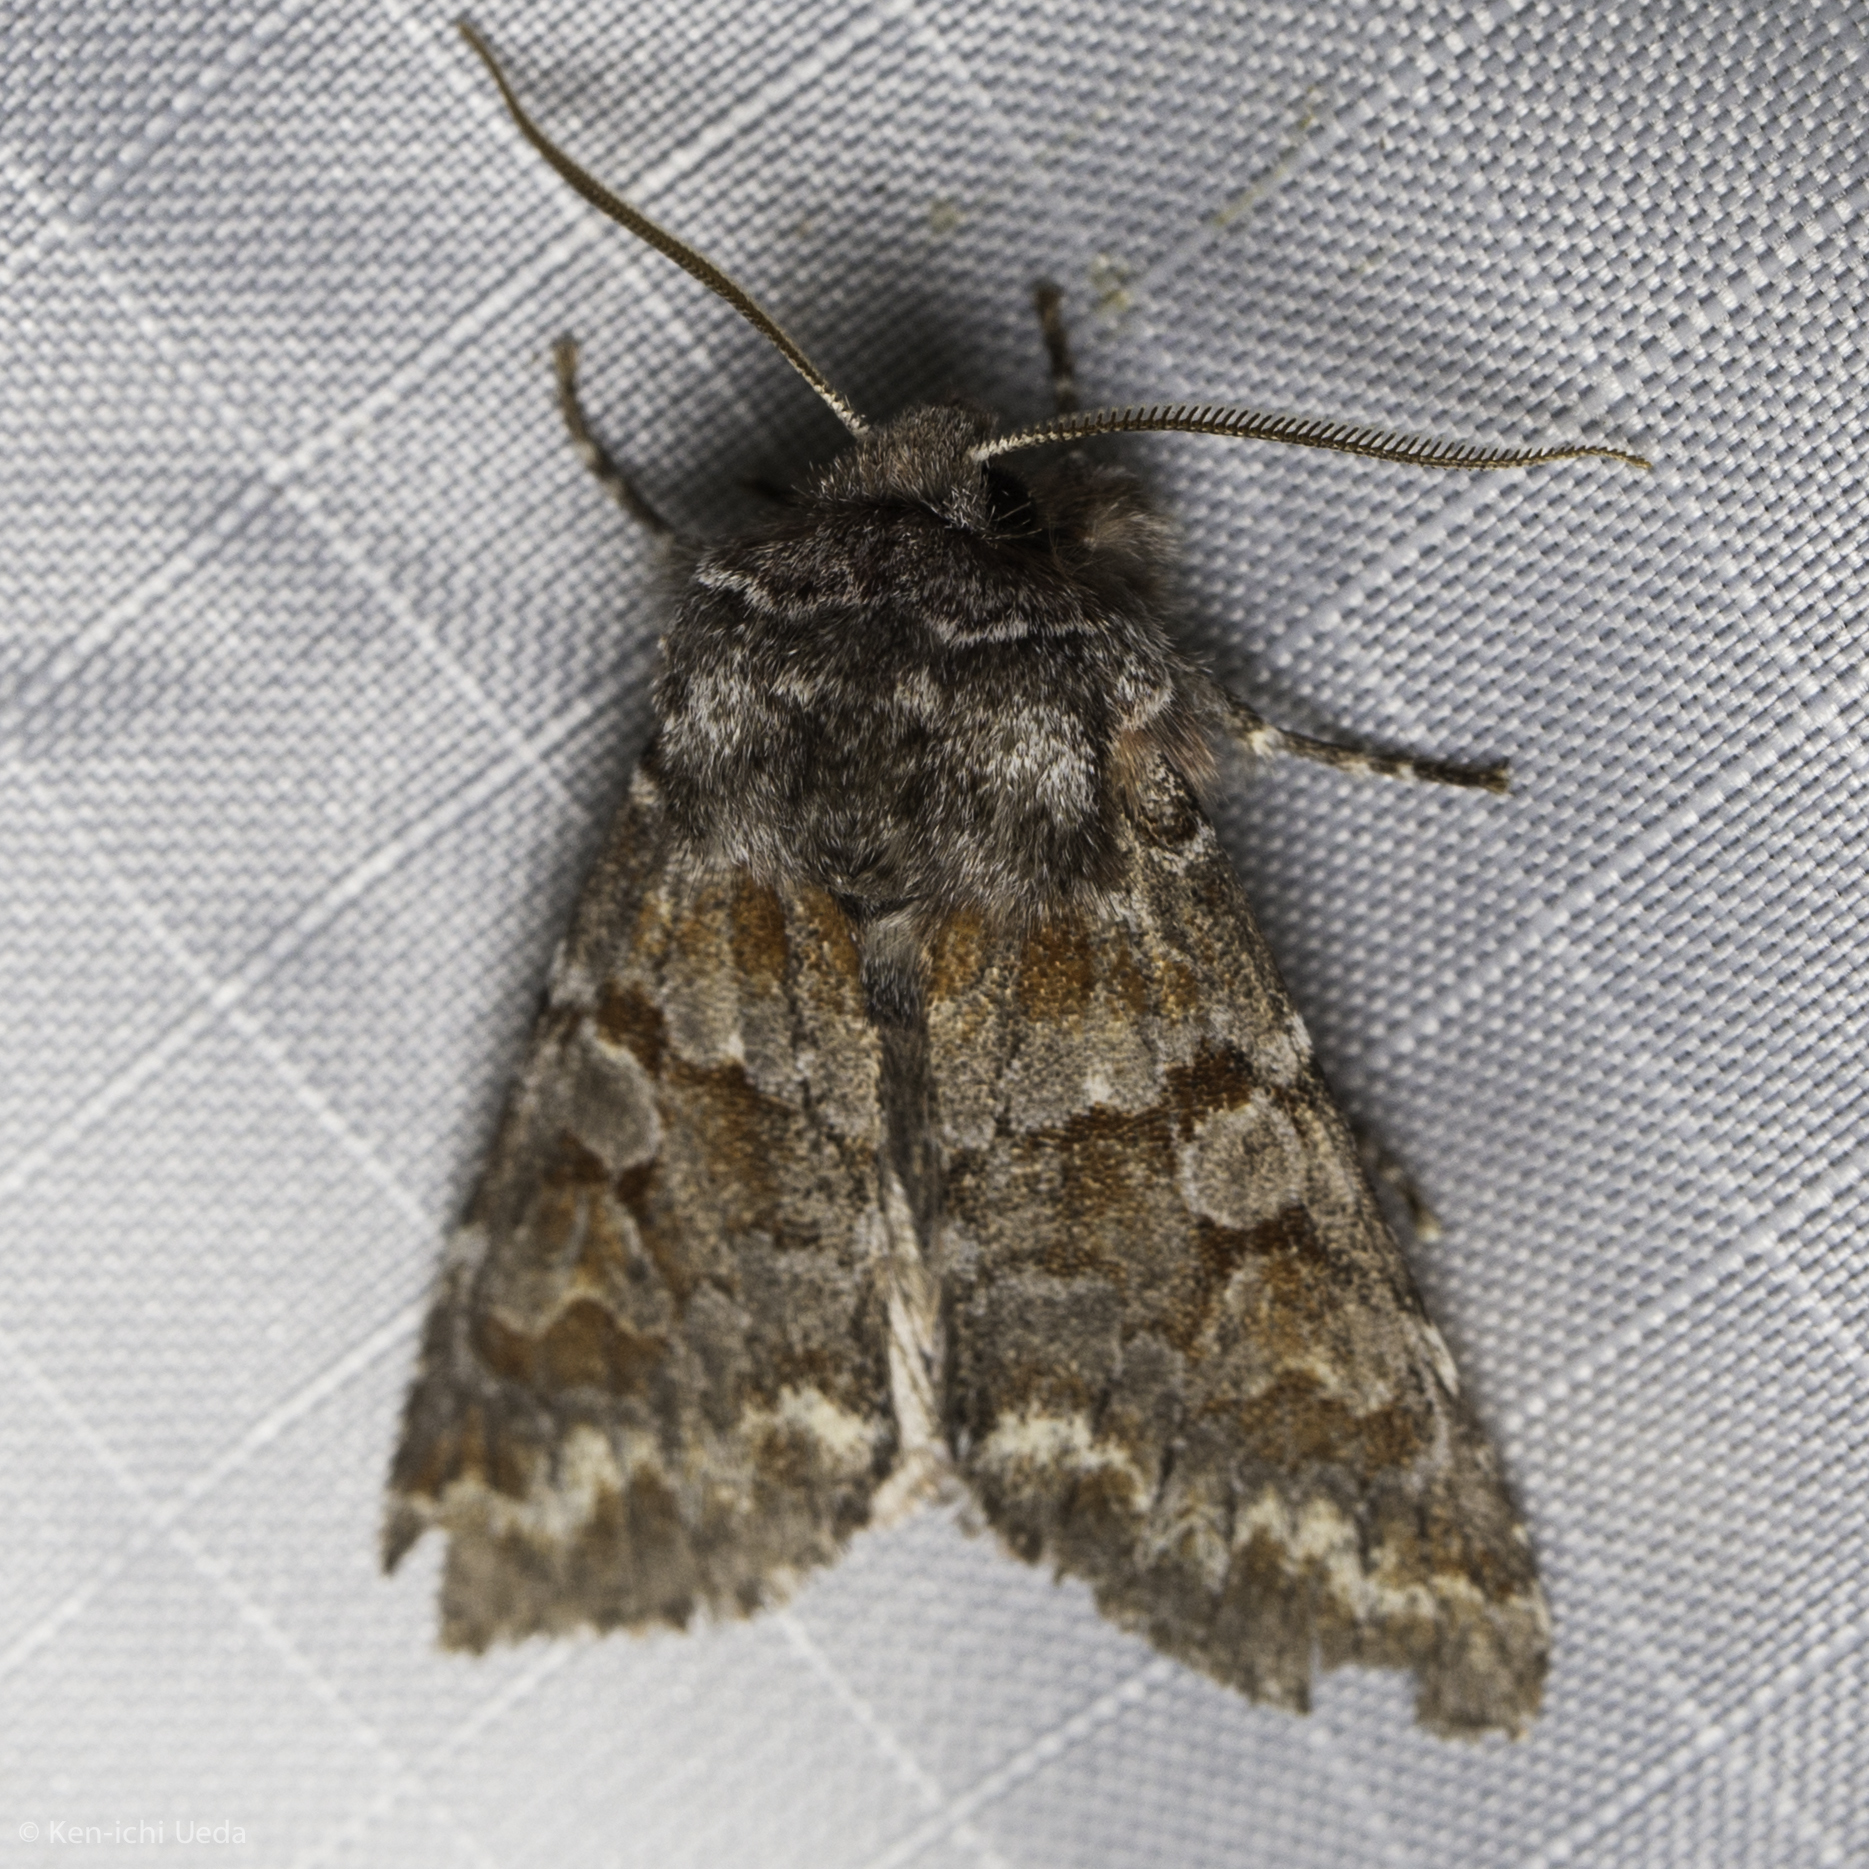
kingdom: Animalia
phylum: Arthropoda
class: Insecta
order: Lepidoptera
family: Noctuidae
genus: Egira
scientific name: Egira baueri
